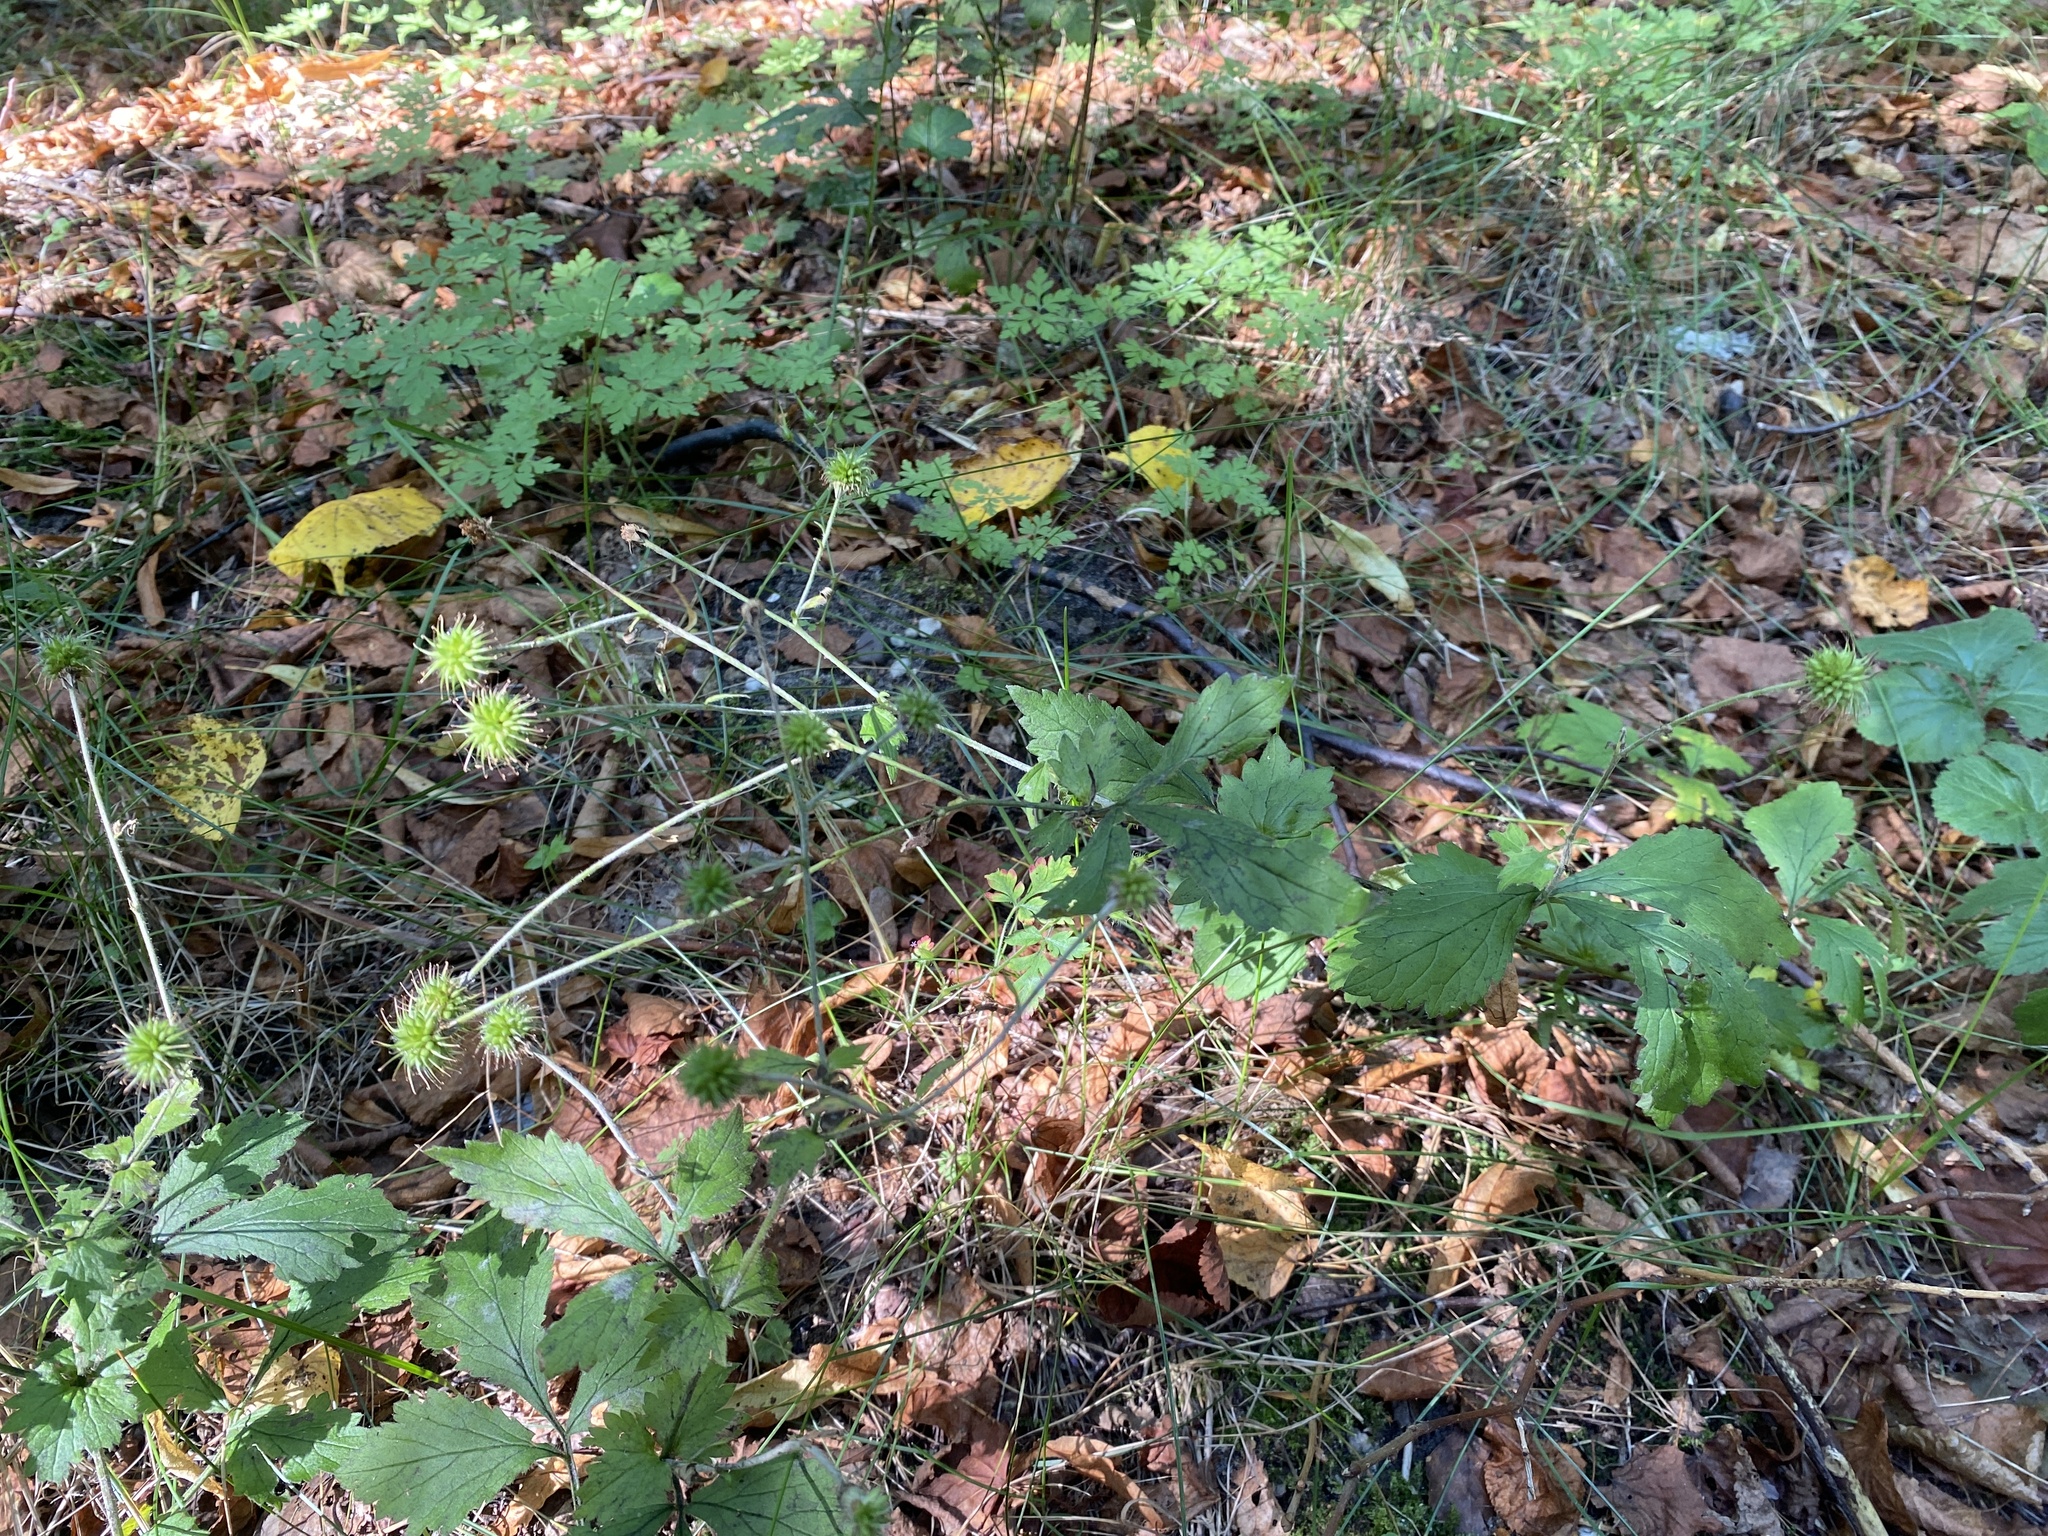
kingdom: Plantae
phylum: Tracheophyta
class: Magnoliopsida
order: Rosales
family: Rosaceae
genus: Geum
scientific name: Geum urbanum
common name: Wood avens
